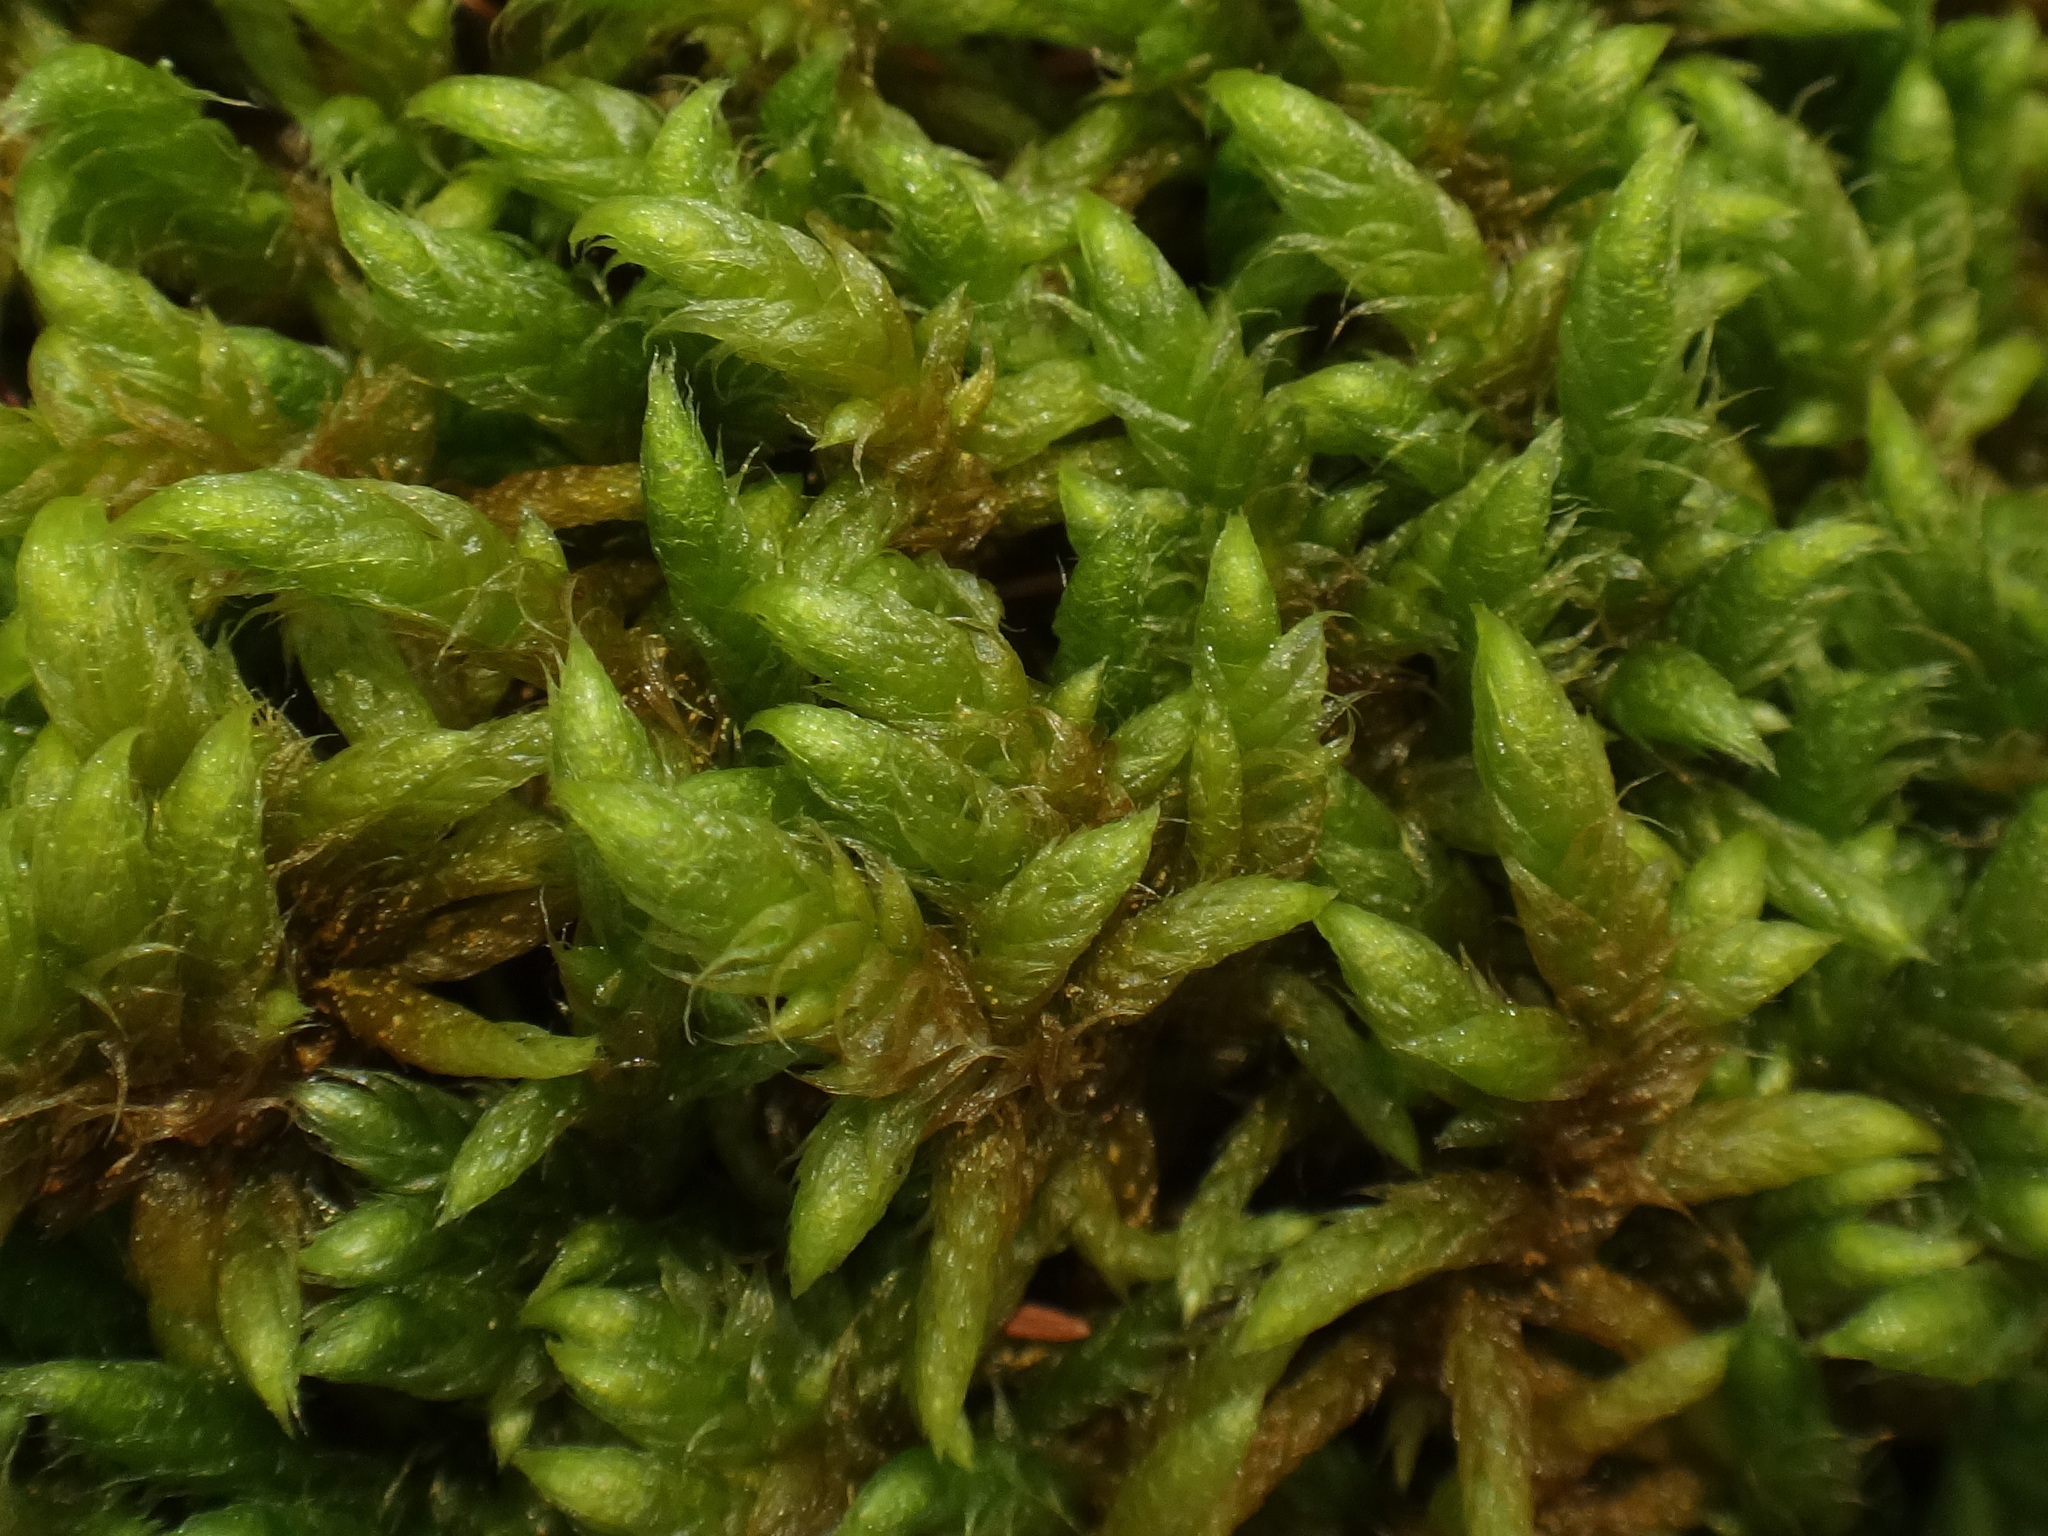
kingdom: Plantae
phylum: Bryophyta
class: Bryopsida
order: Hypnales
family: Rhytidiaceae
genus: Rhytidium
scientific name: Rhytidium rugosum
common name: Wrinkle-leaved moss
